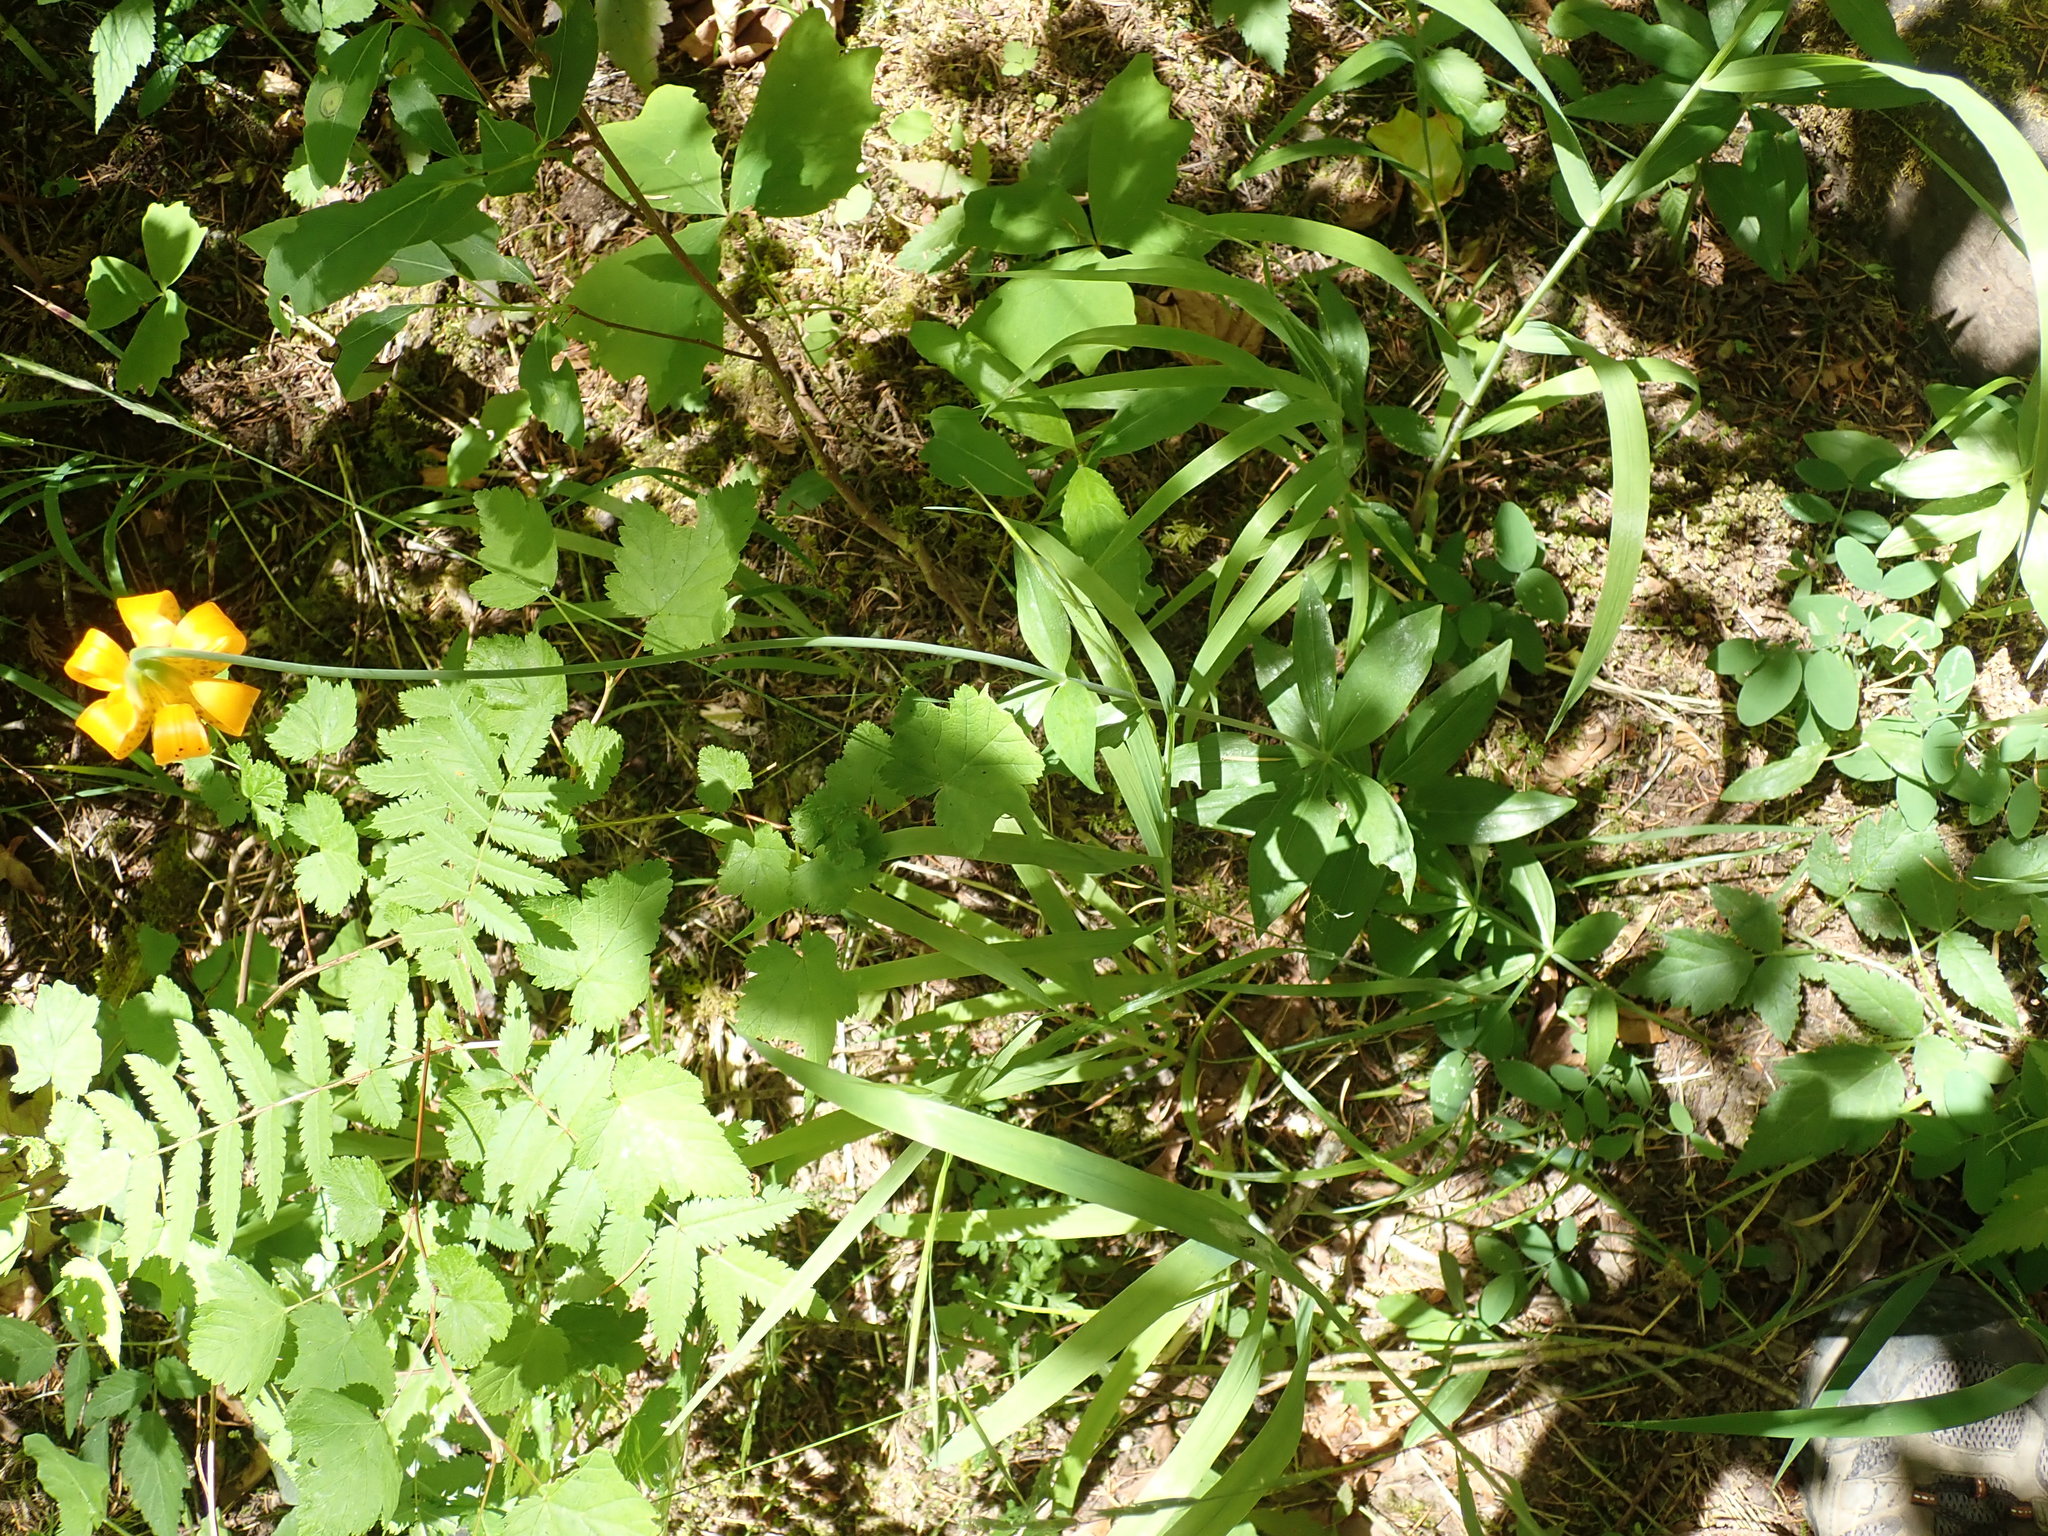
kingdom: Plantae
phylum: Tracheophyta
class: Liliopsida
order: Liliales
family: Liliaceae
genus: Lilium
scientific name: Lilium columbianum
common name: Columbia lily
